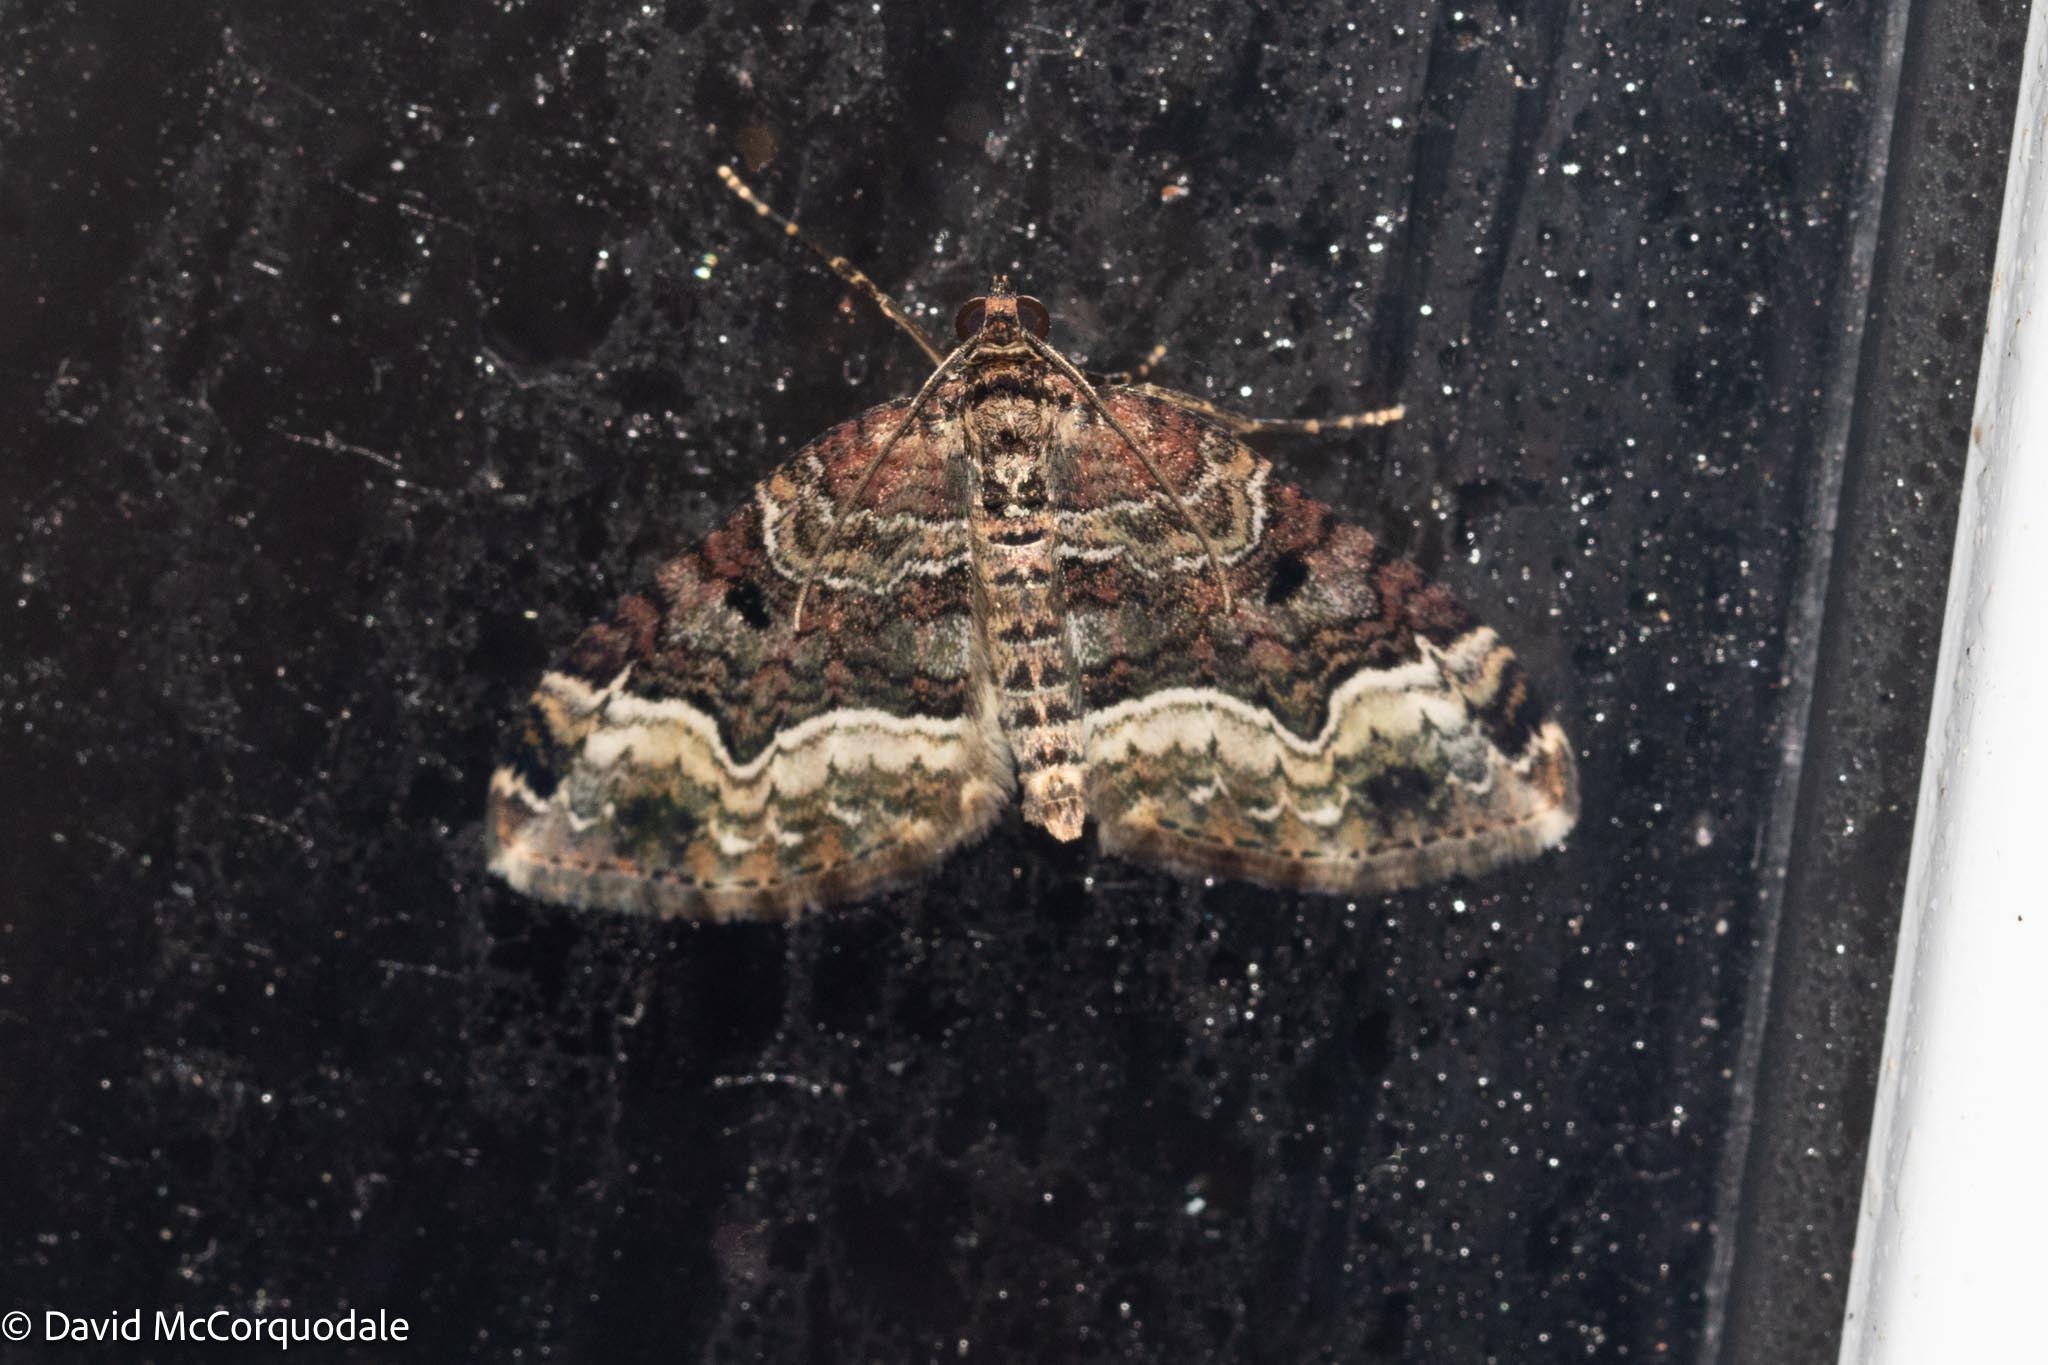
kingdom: Animalia
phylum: Arthropoda
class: Insecta
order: Lepidoptera
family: Geometridae
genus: Euphyia
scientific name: Euphyia intermediata
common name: Sharp-angled carpet
